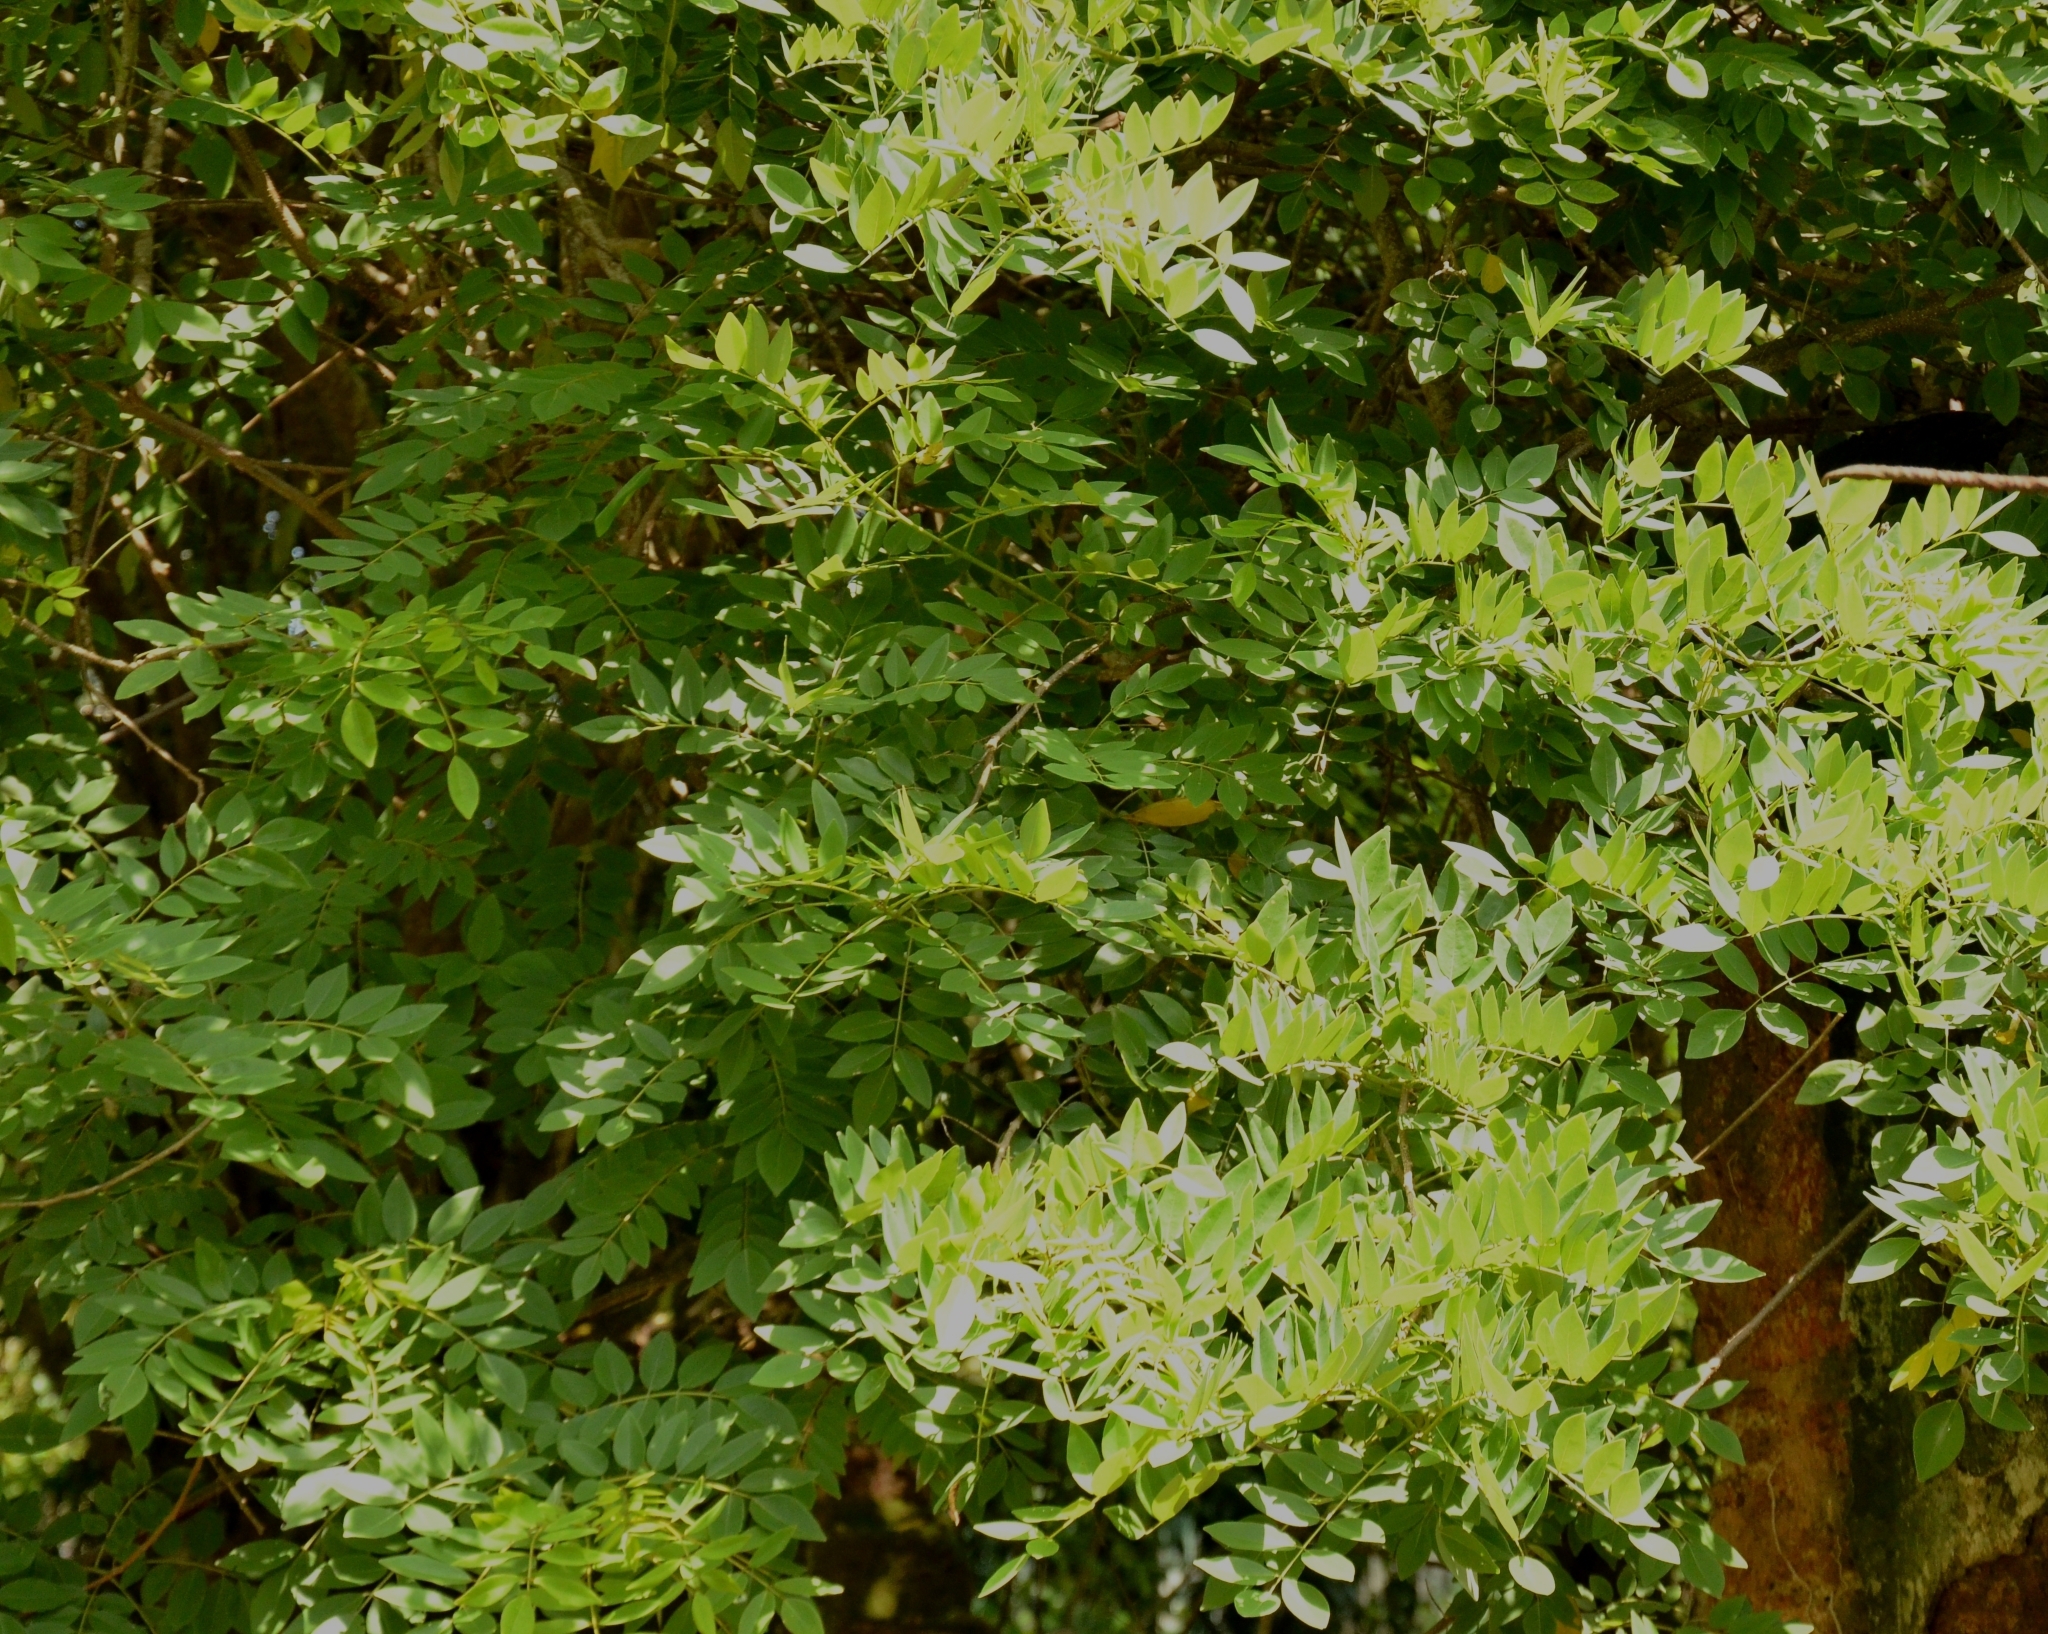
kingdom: Plantae
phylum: Tracheophyta
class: Magnoliopsida
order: Fabales
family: Fabaceae
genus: Gliricidia
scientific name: Gliricidia sepium
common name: Quickstick
